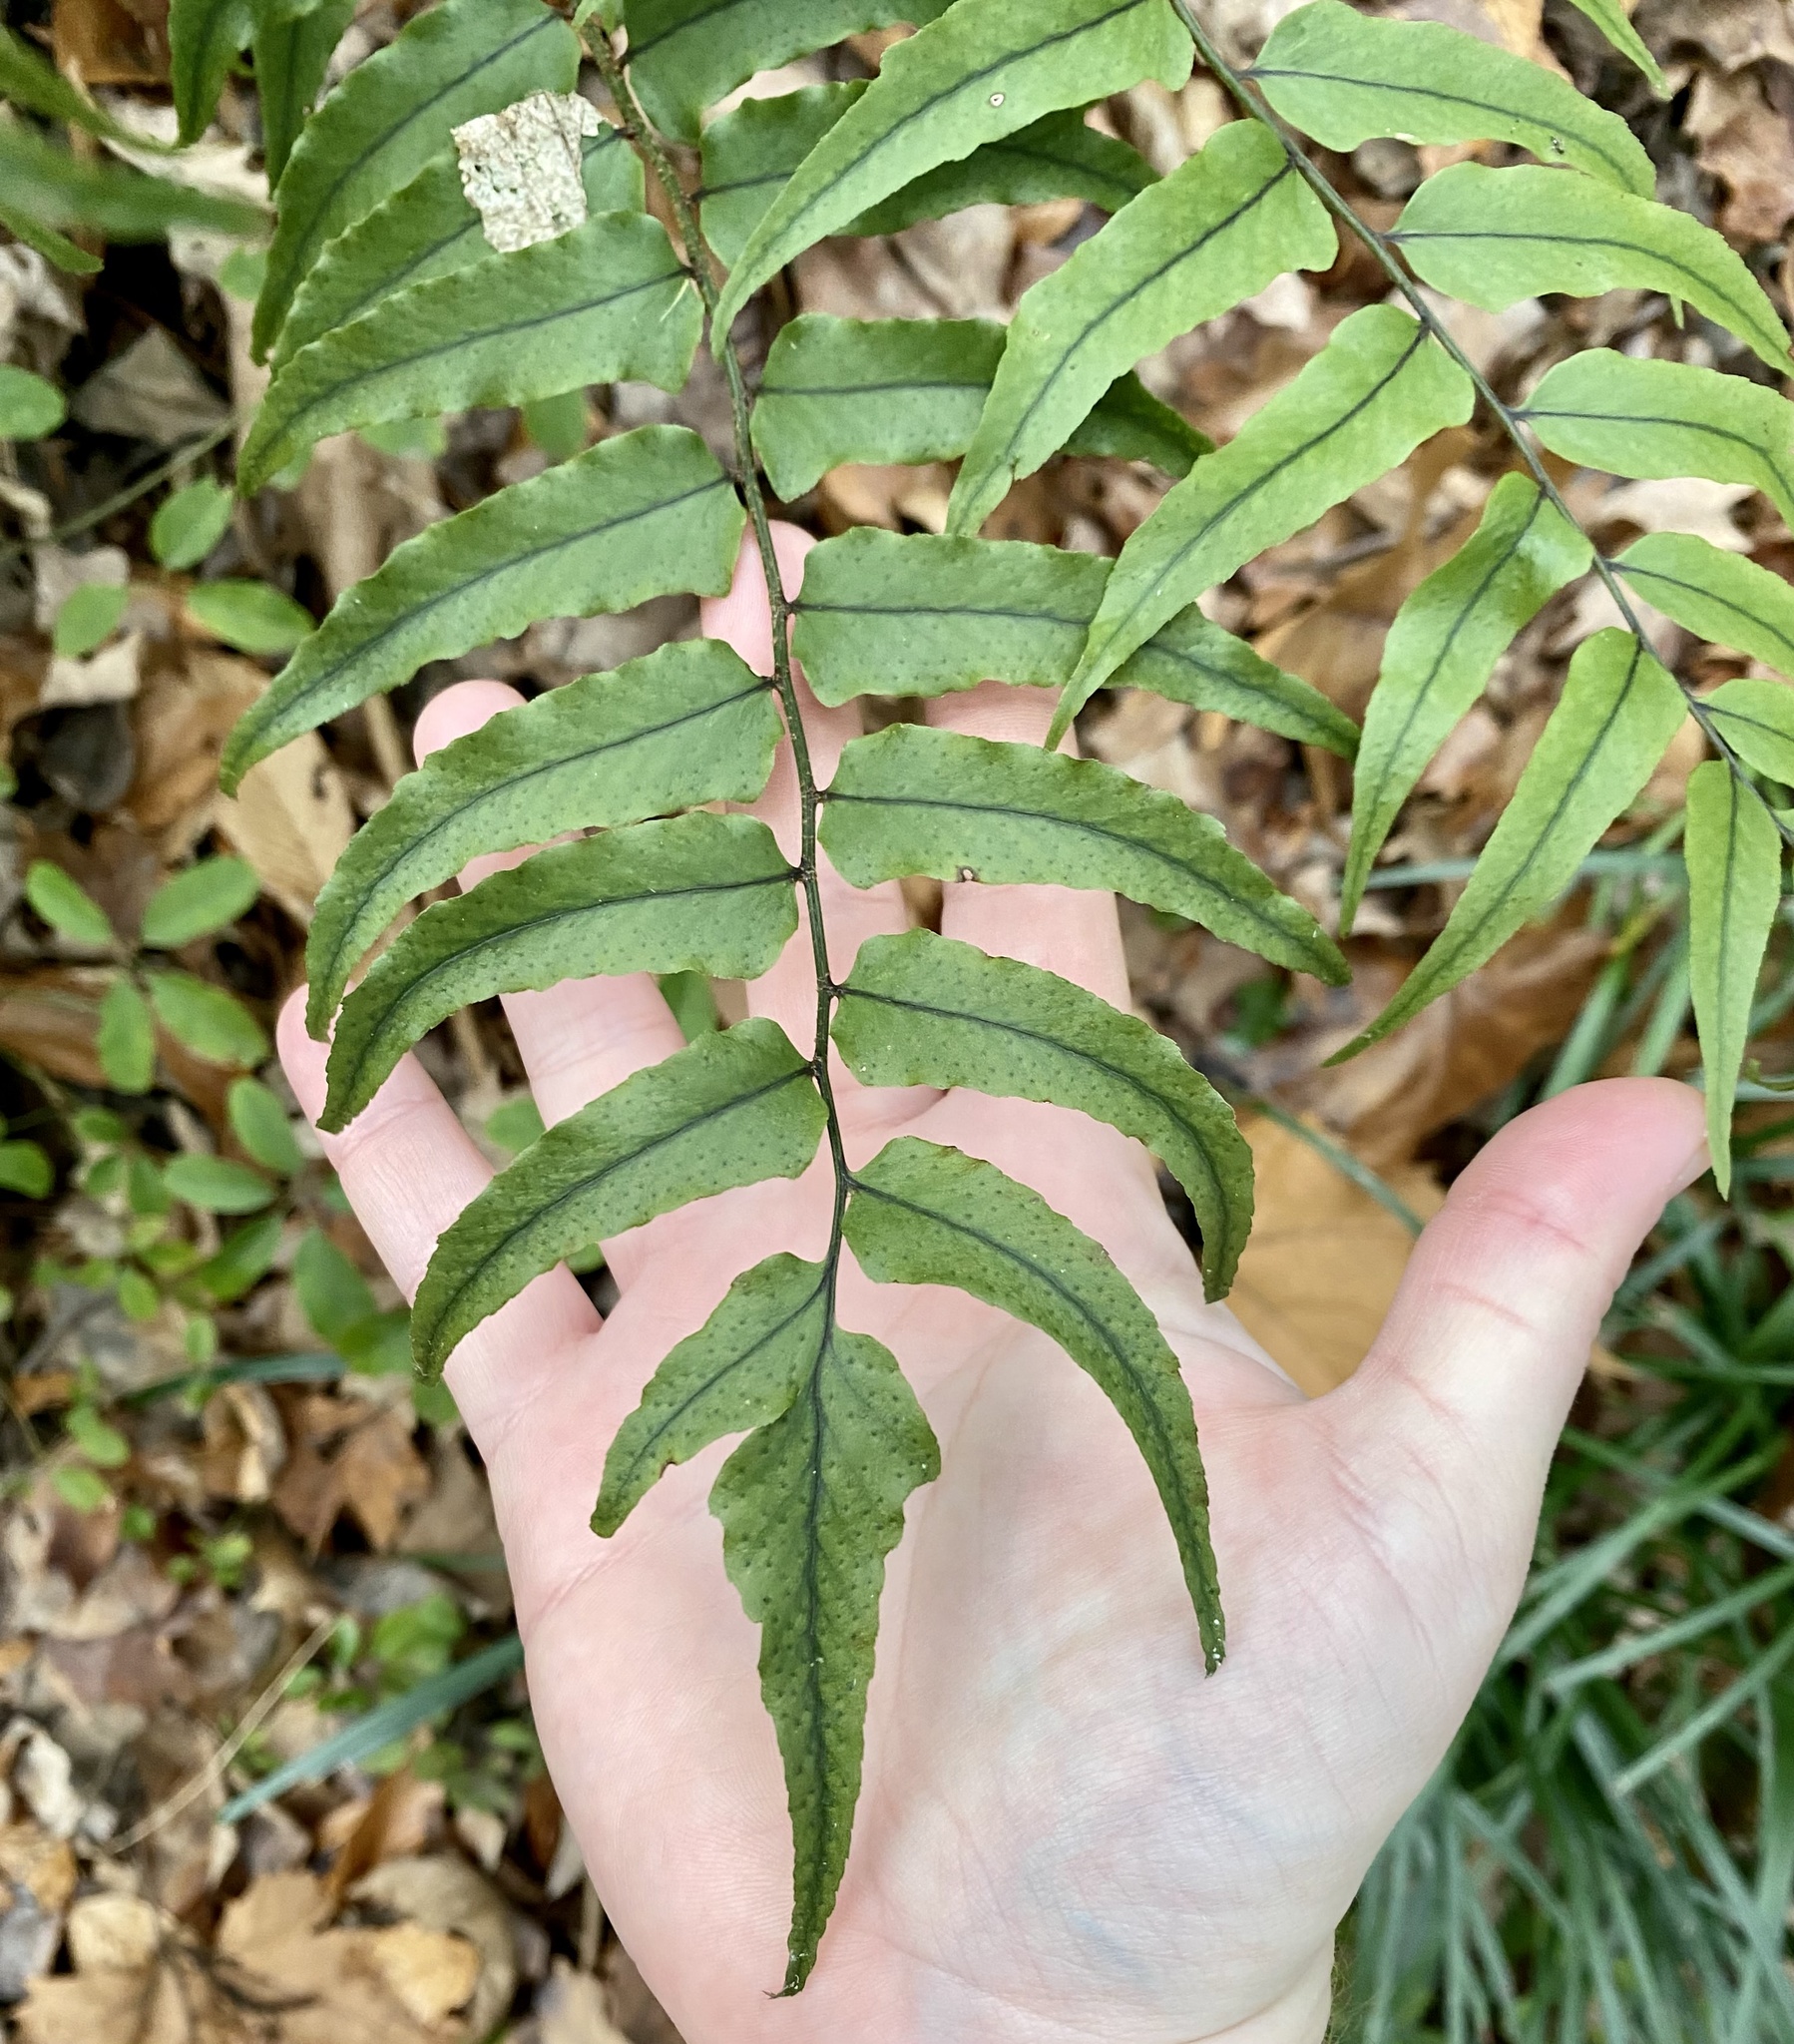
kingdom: Plantae
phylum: Tracheophyta
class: Polypodiopsida
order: Polypodiales
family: Dryopteridaceae
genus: Cyrtomium
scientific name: Cyrtomium fortunei
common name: Asian netvein hollyfern
